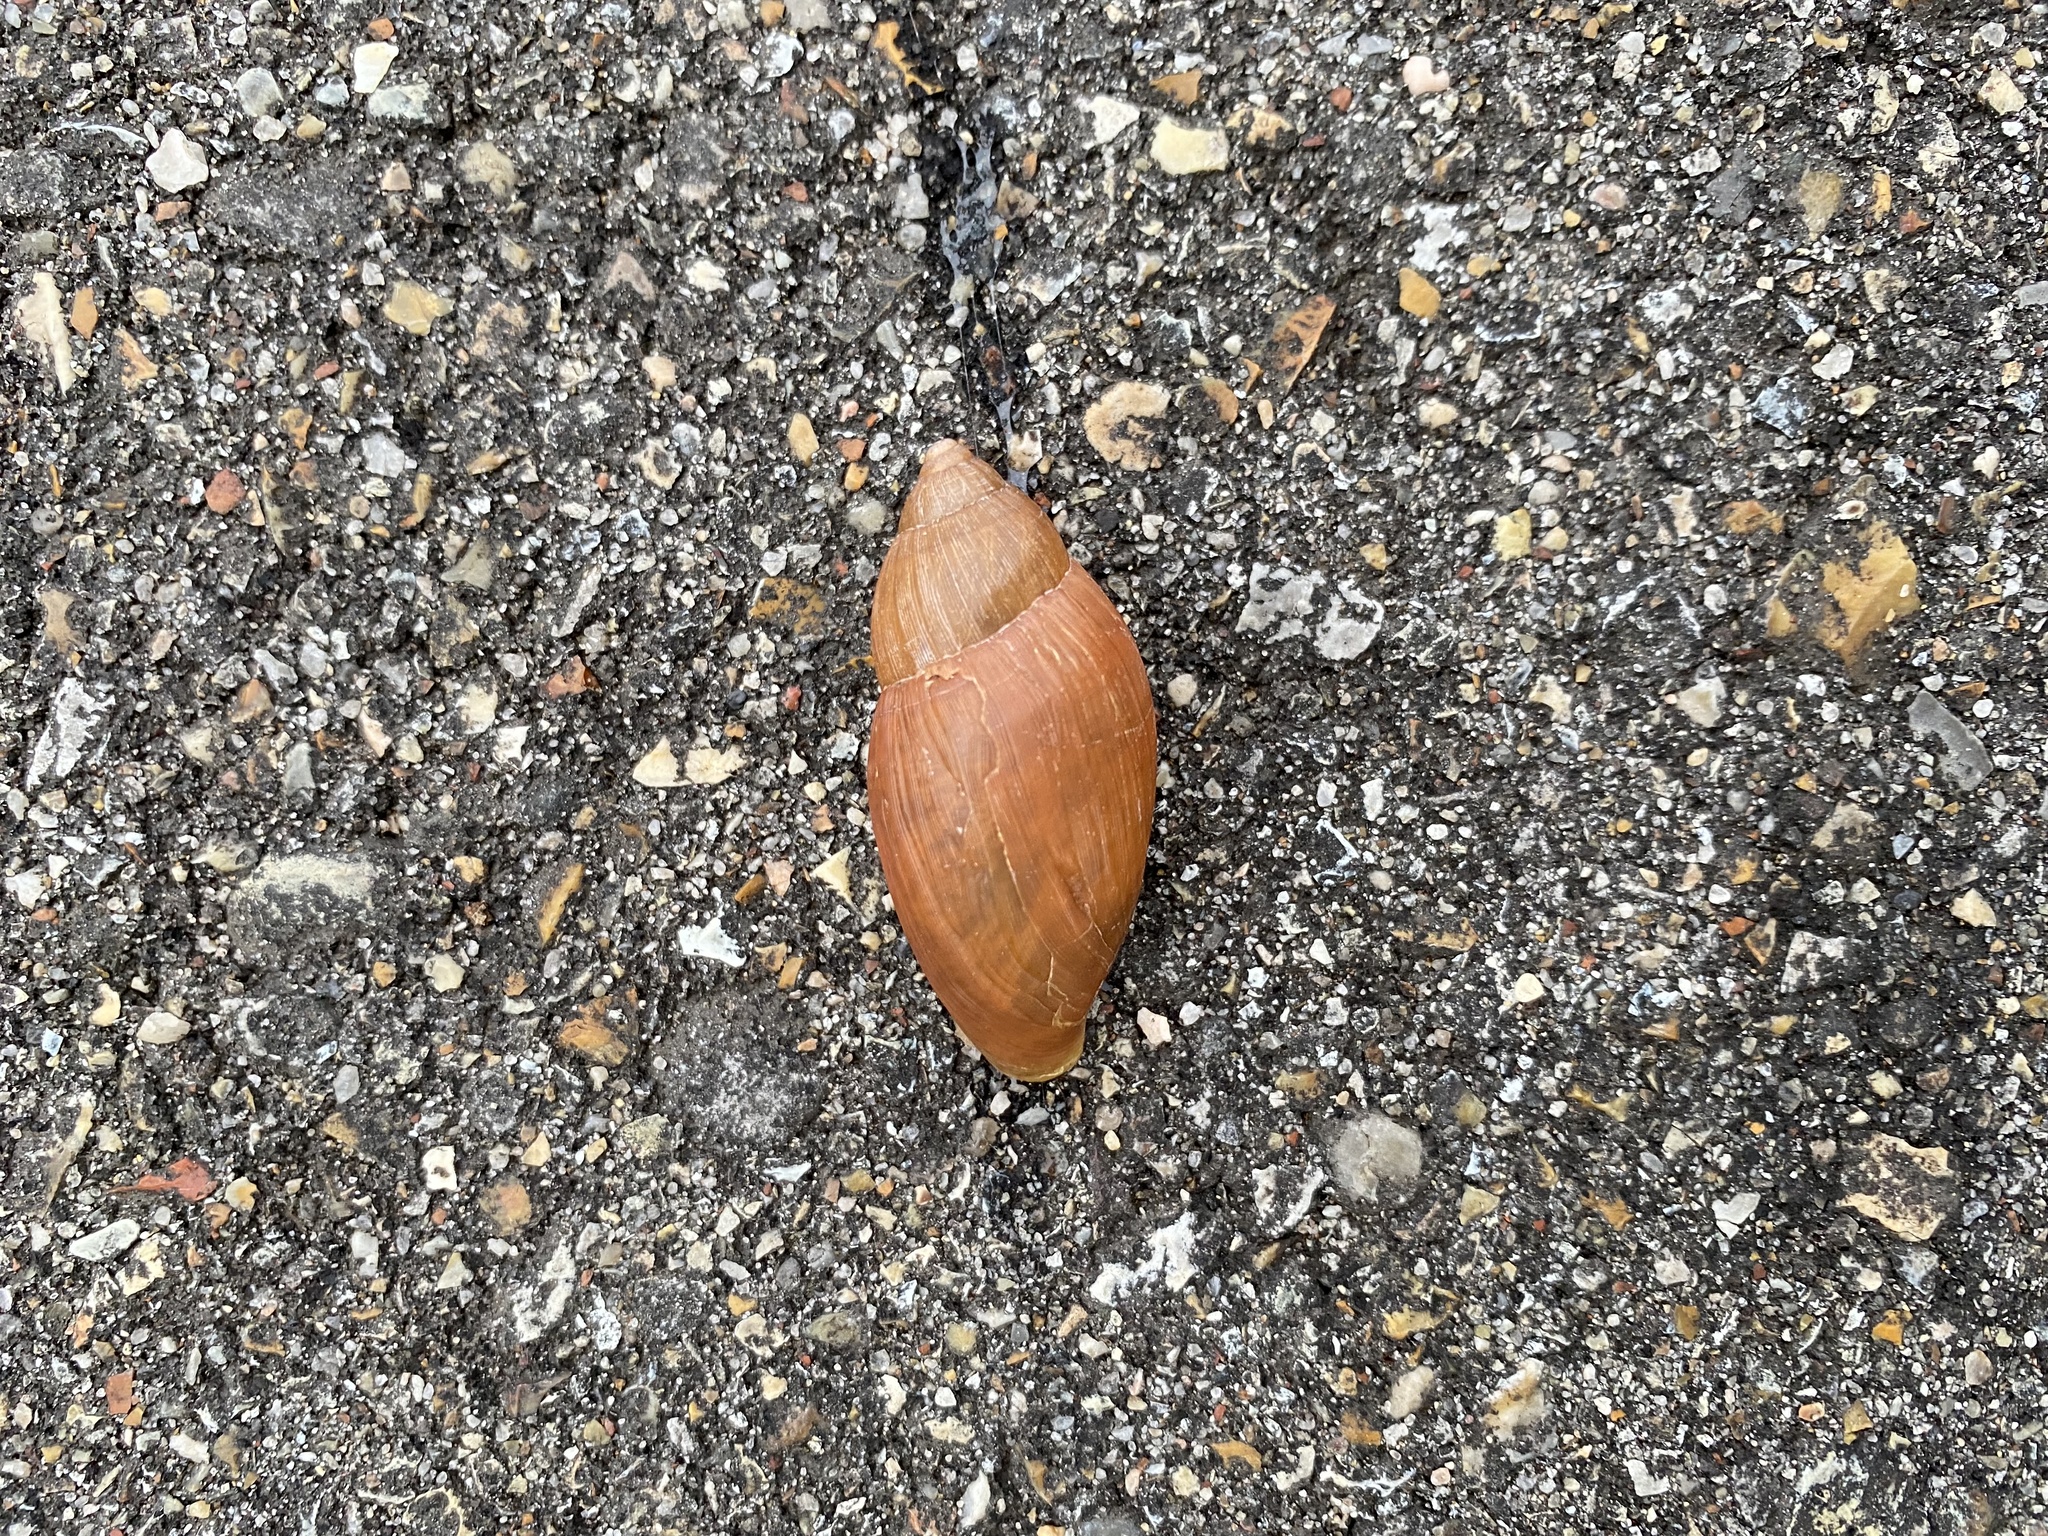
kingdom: Animalia
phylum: Mollusca
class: Gastropoda
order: Stylommatophora
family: Spiraxidae
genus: Euglandina
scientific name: Euglandina rosea
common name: Rosy wolfsnail
